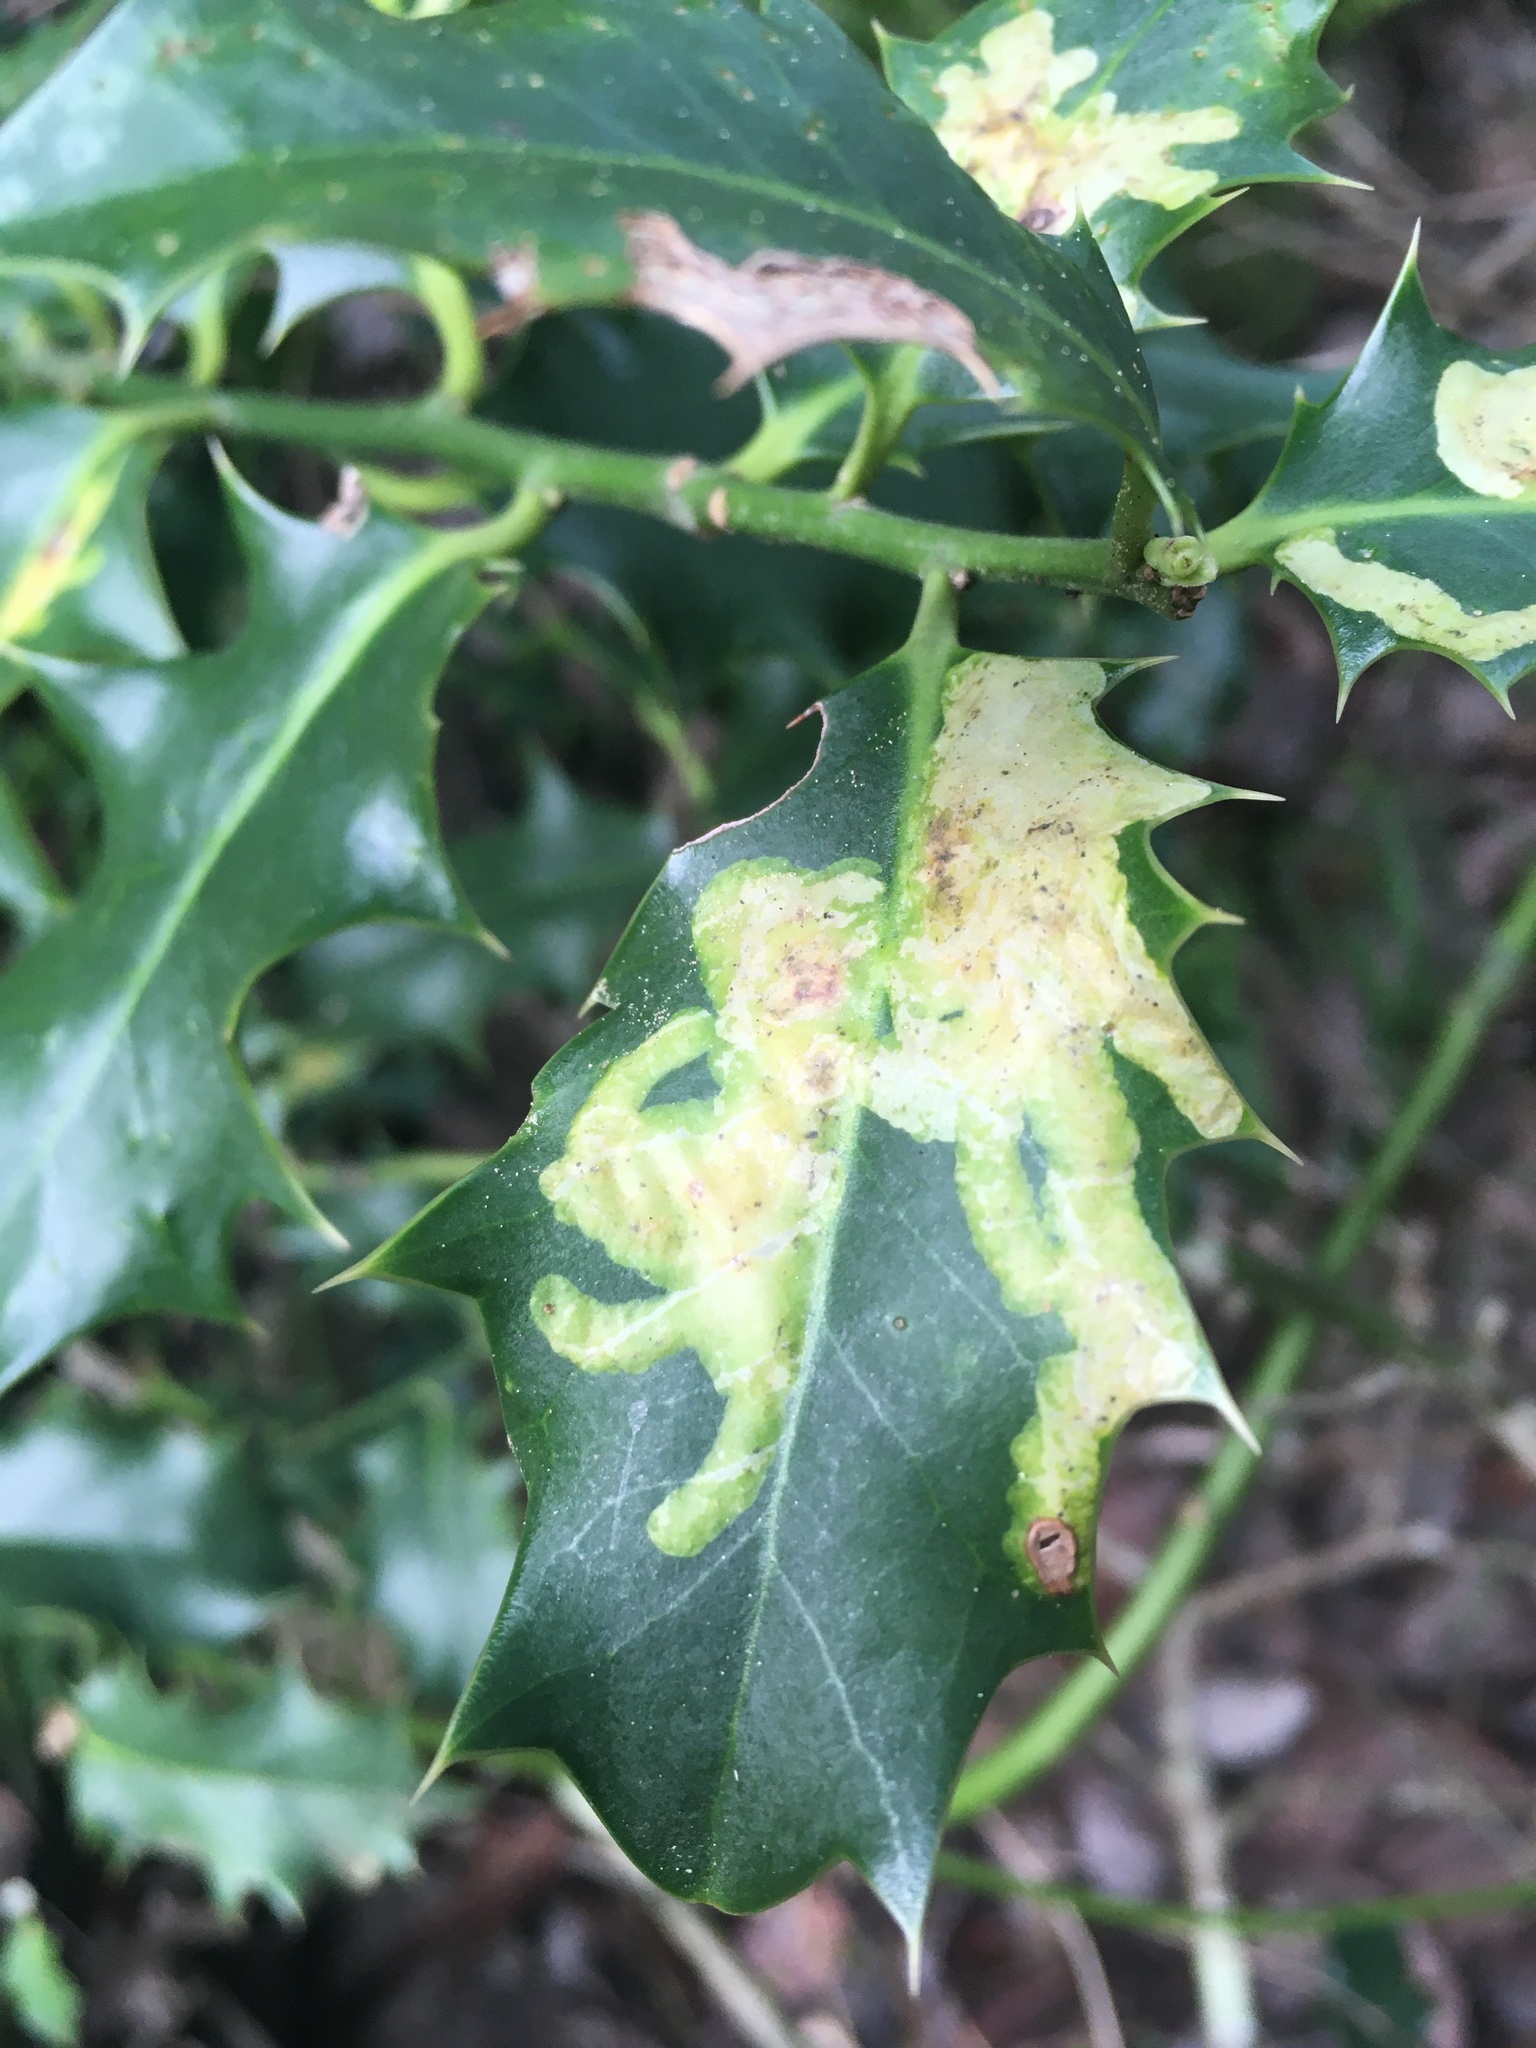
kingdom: Animalia
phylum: Arthropoda
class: Insecta
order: Diptera
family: Agromyzidae
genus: Phytomyza
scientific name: Phytomyza ilicis
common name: Holly leafminer
